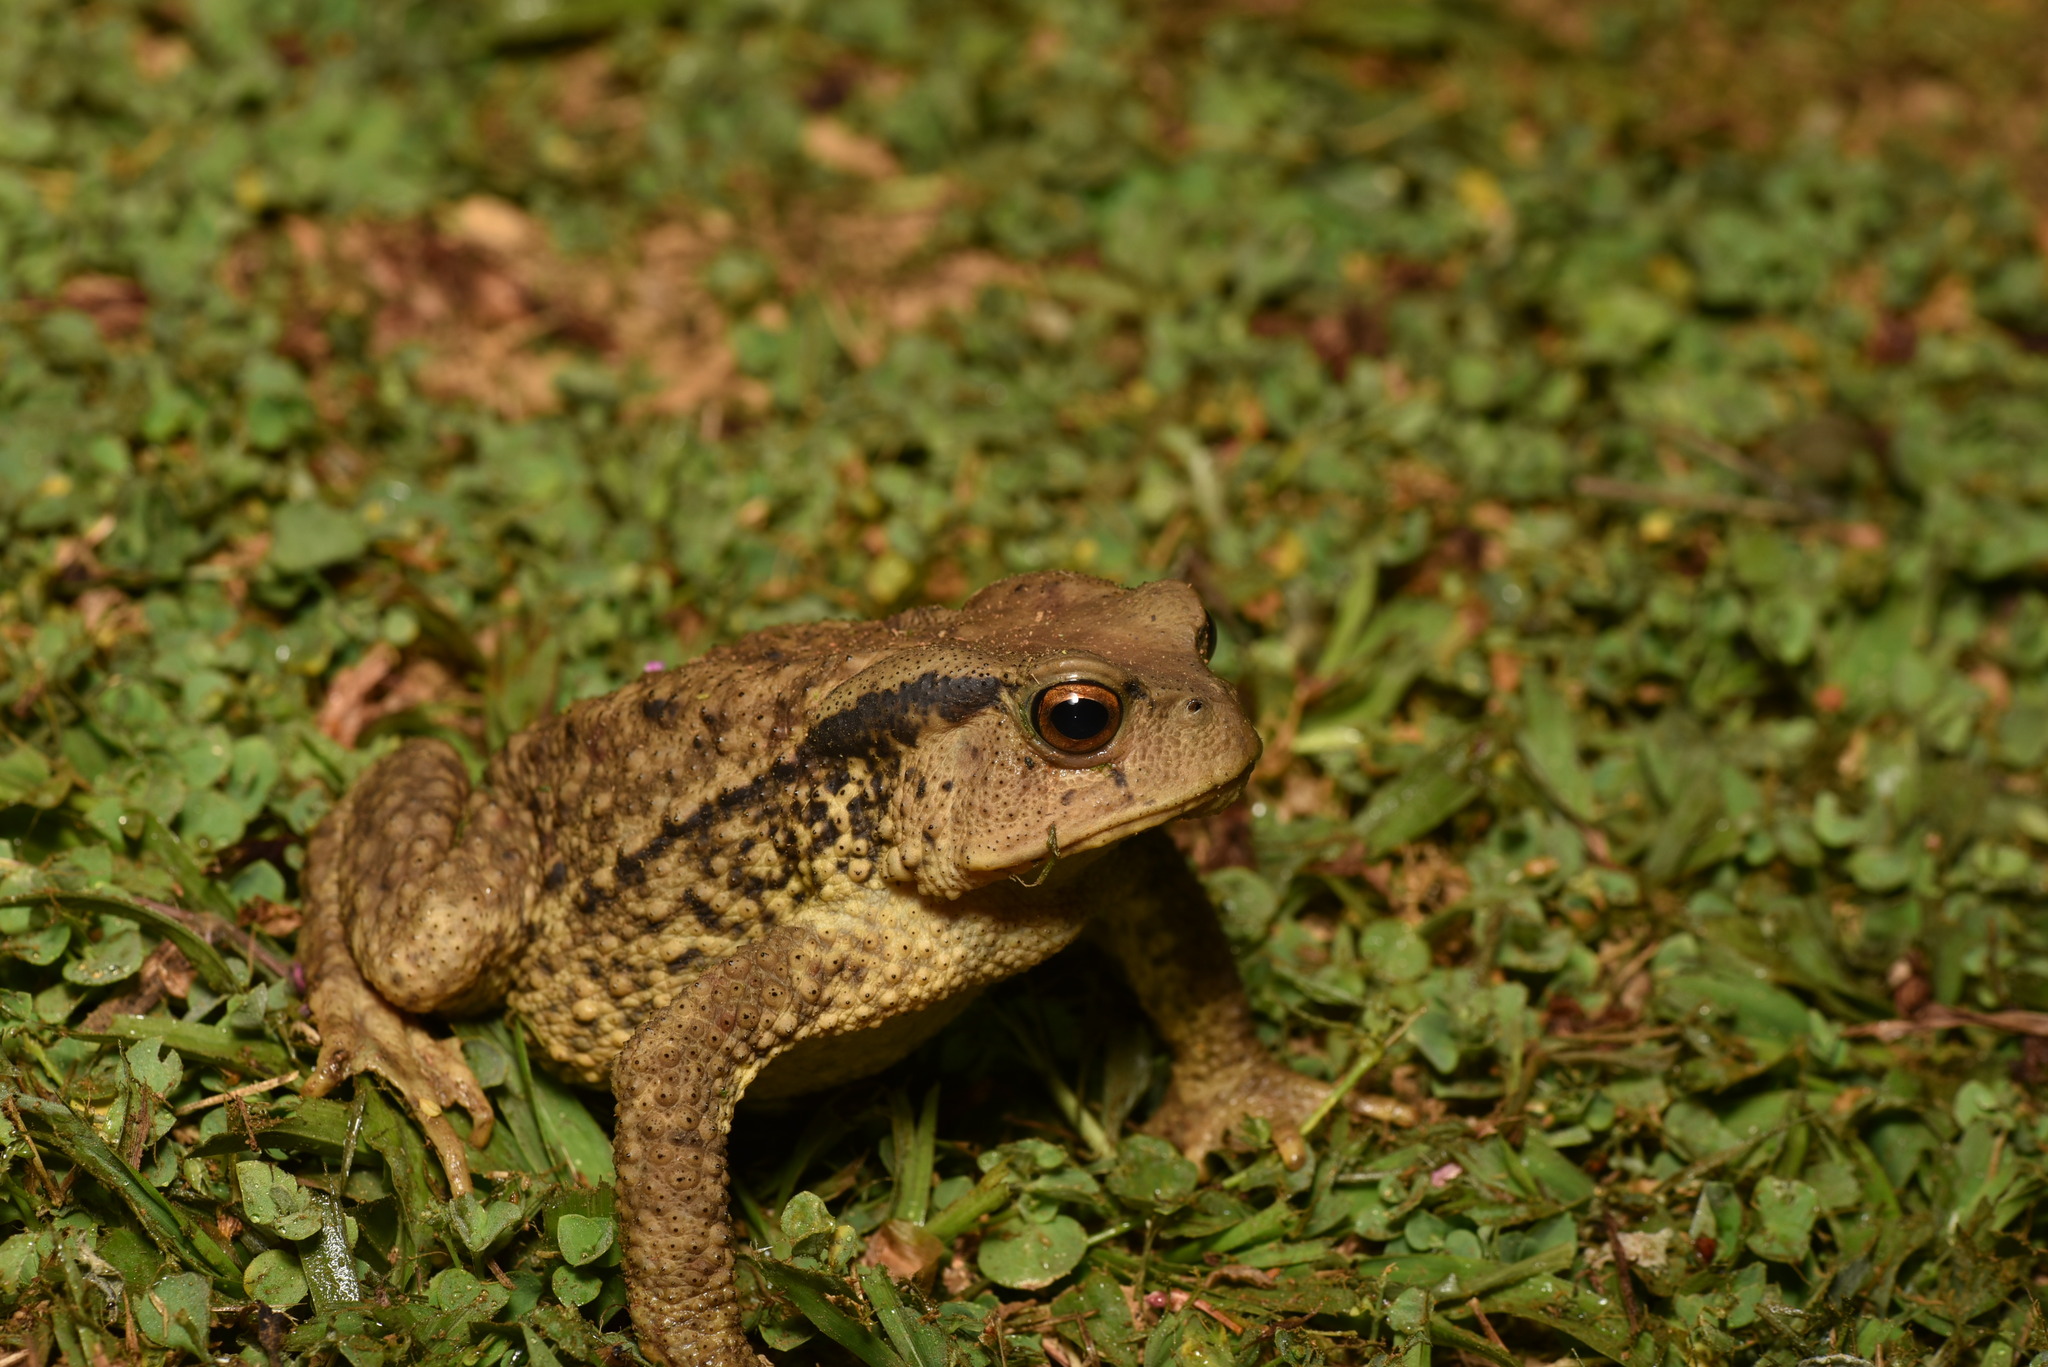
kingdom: Animalia
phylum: Chordata
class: Amphibia
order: Anura
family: Bufonidae
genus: Bufo
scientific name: Bufo bankorensis
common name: Bankor toad
